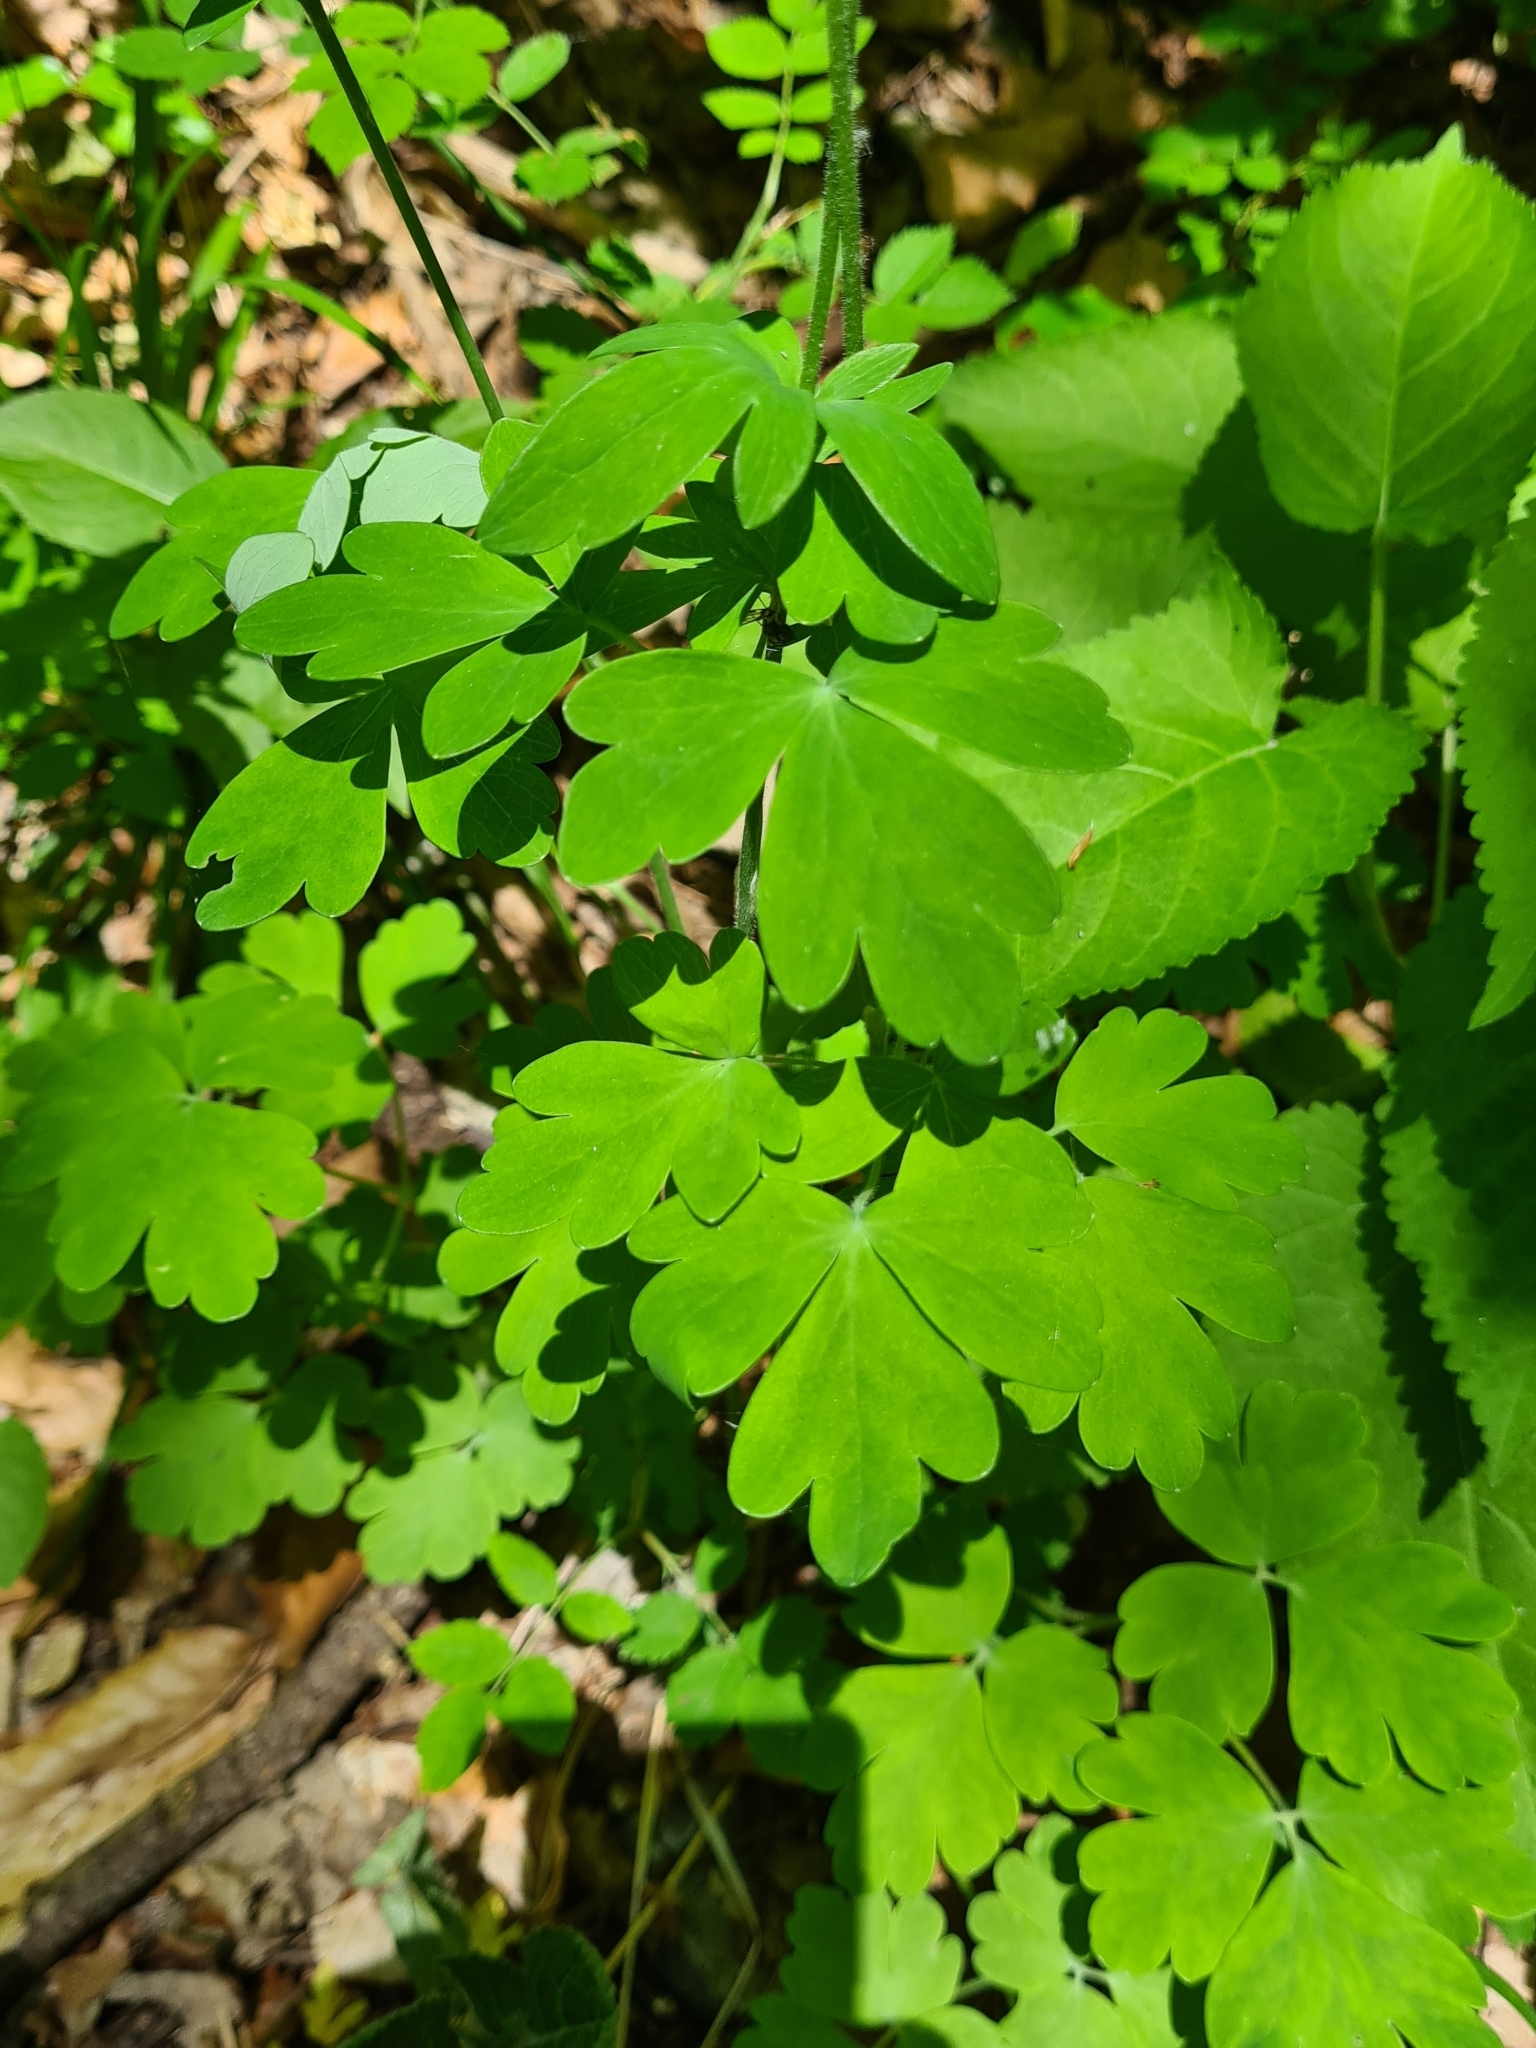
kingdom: Plantae
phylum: Tracheophyta
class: Magnoliopsida
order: Ranunculales
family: Ranunculaceae
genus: Aquilegia
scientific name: Aquilegia vulgaris
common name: Columbine
